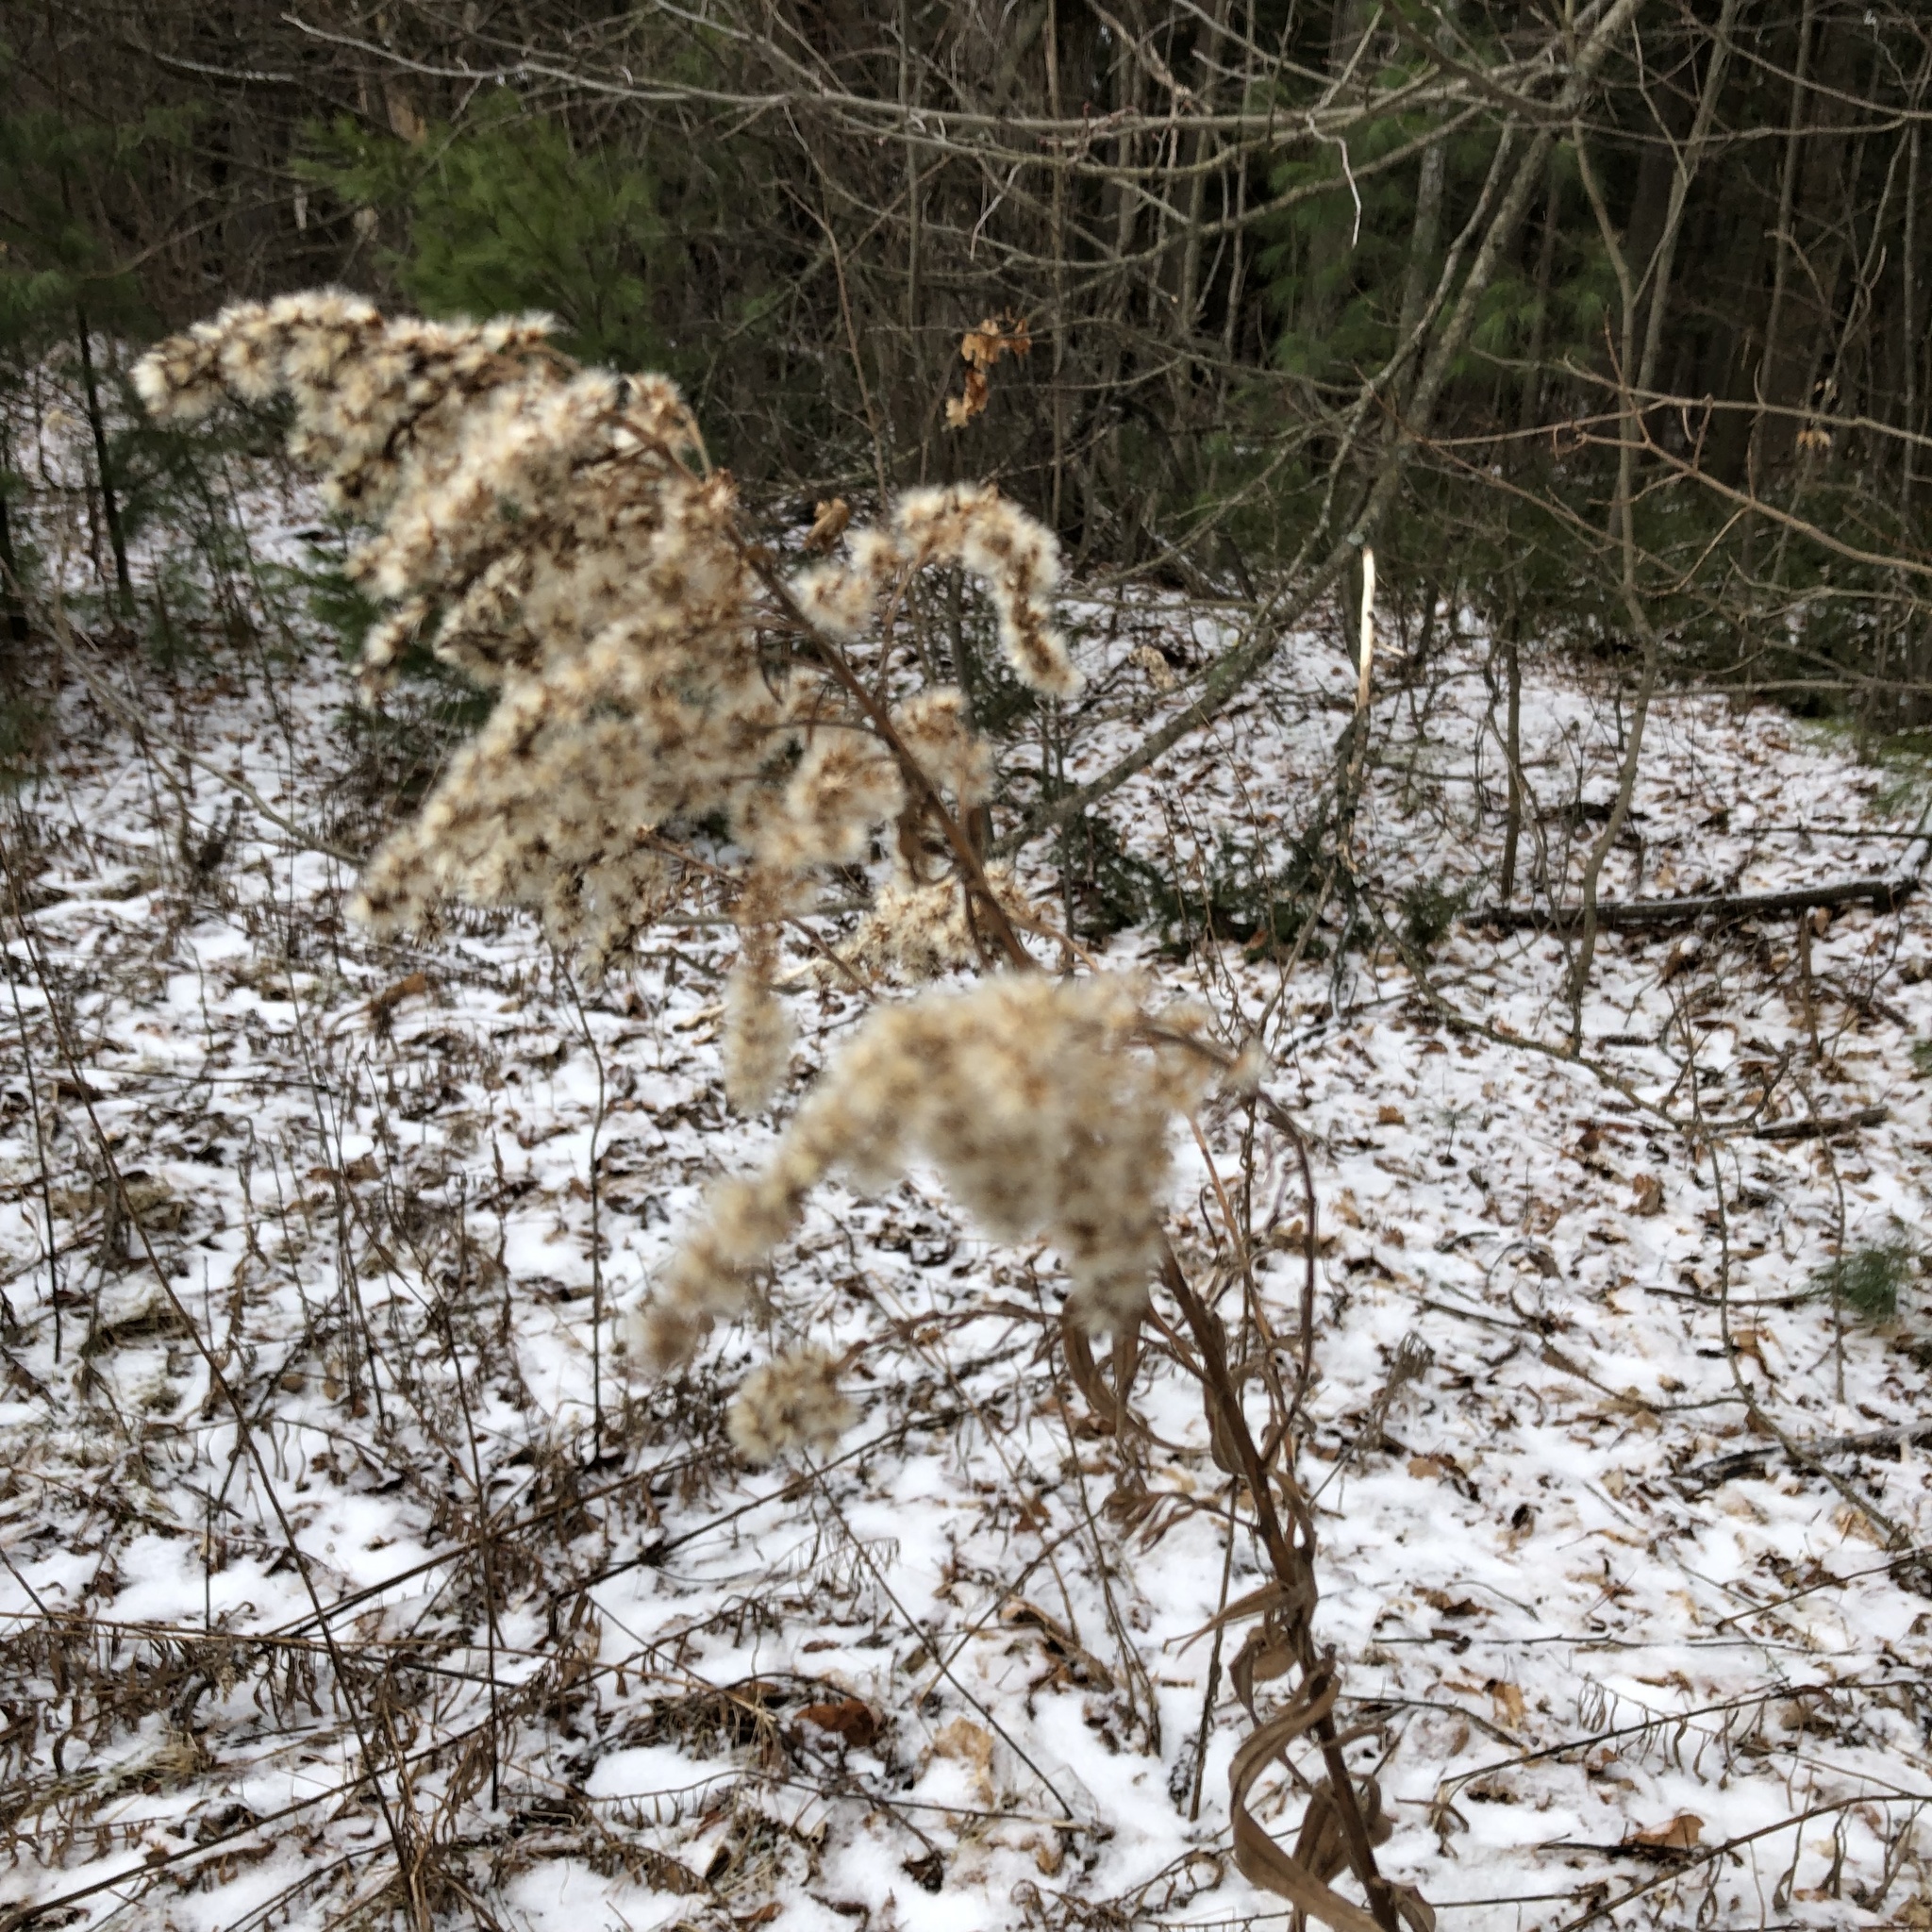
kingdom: Plantae
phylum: Tracheophyta
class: Magnoliopsida
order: Asterales
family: Asteraceae
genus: Solidago
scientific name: Solidago canadensis
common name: Canada goldenrod
